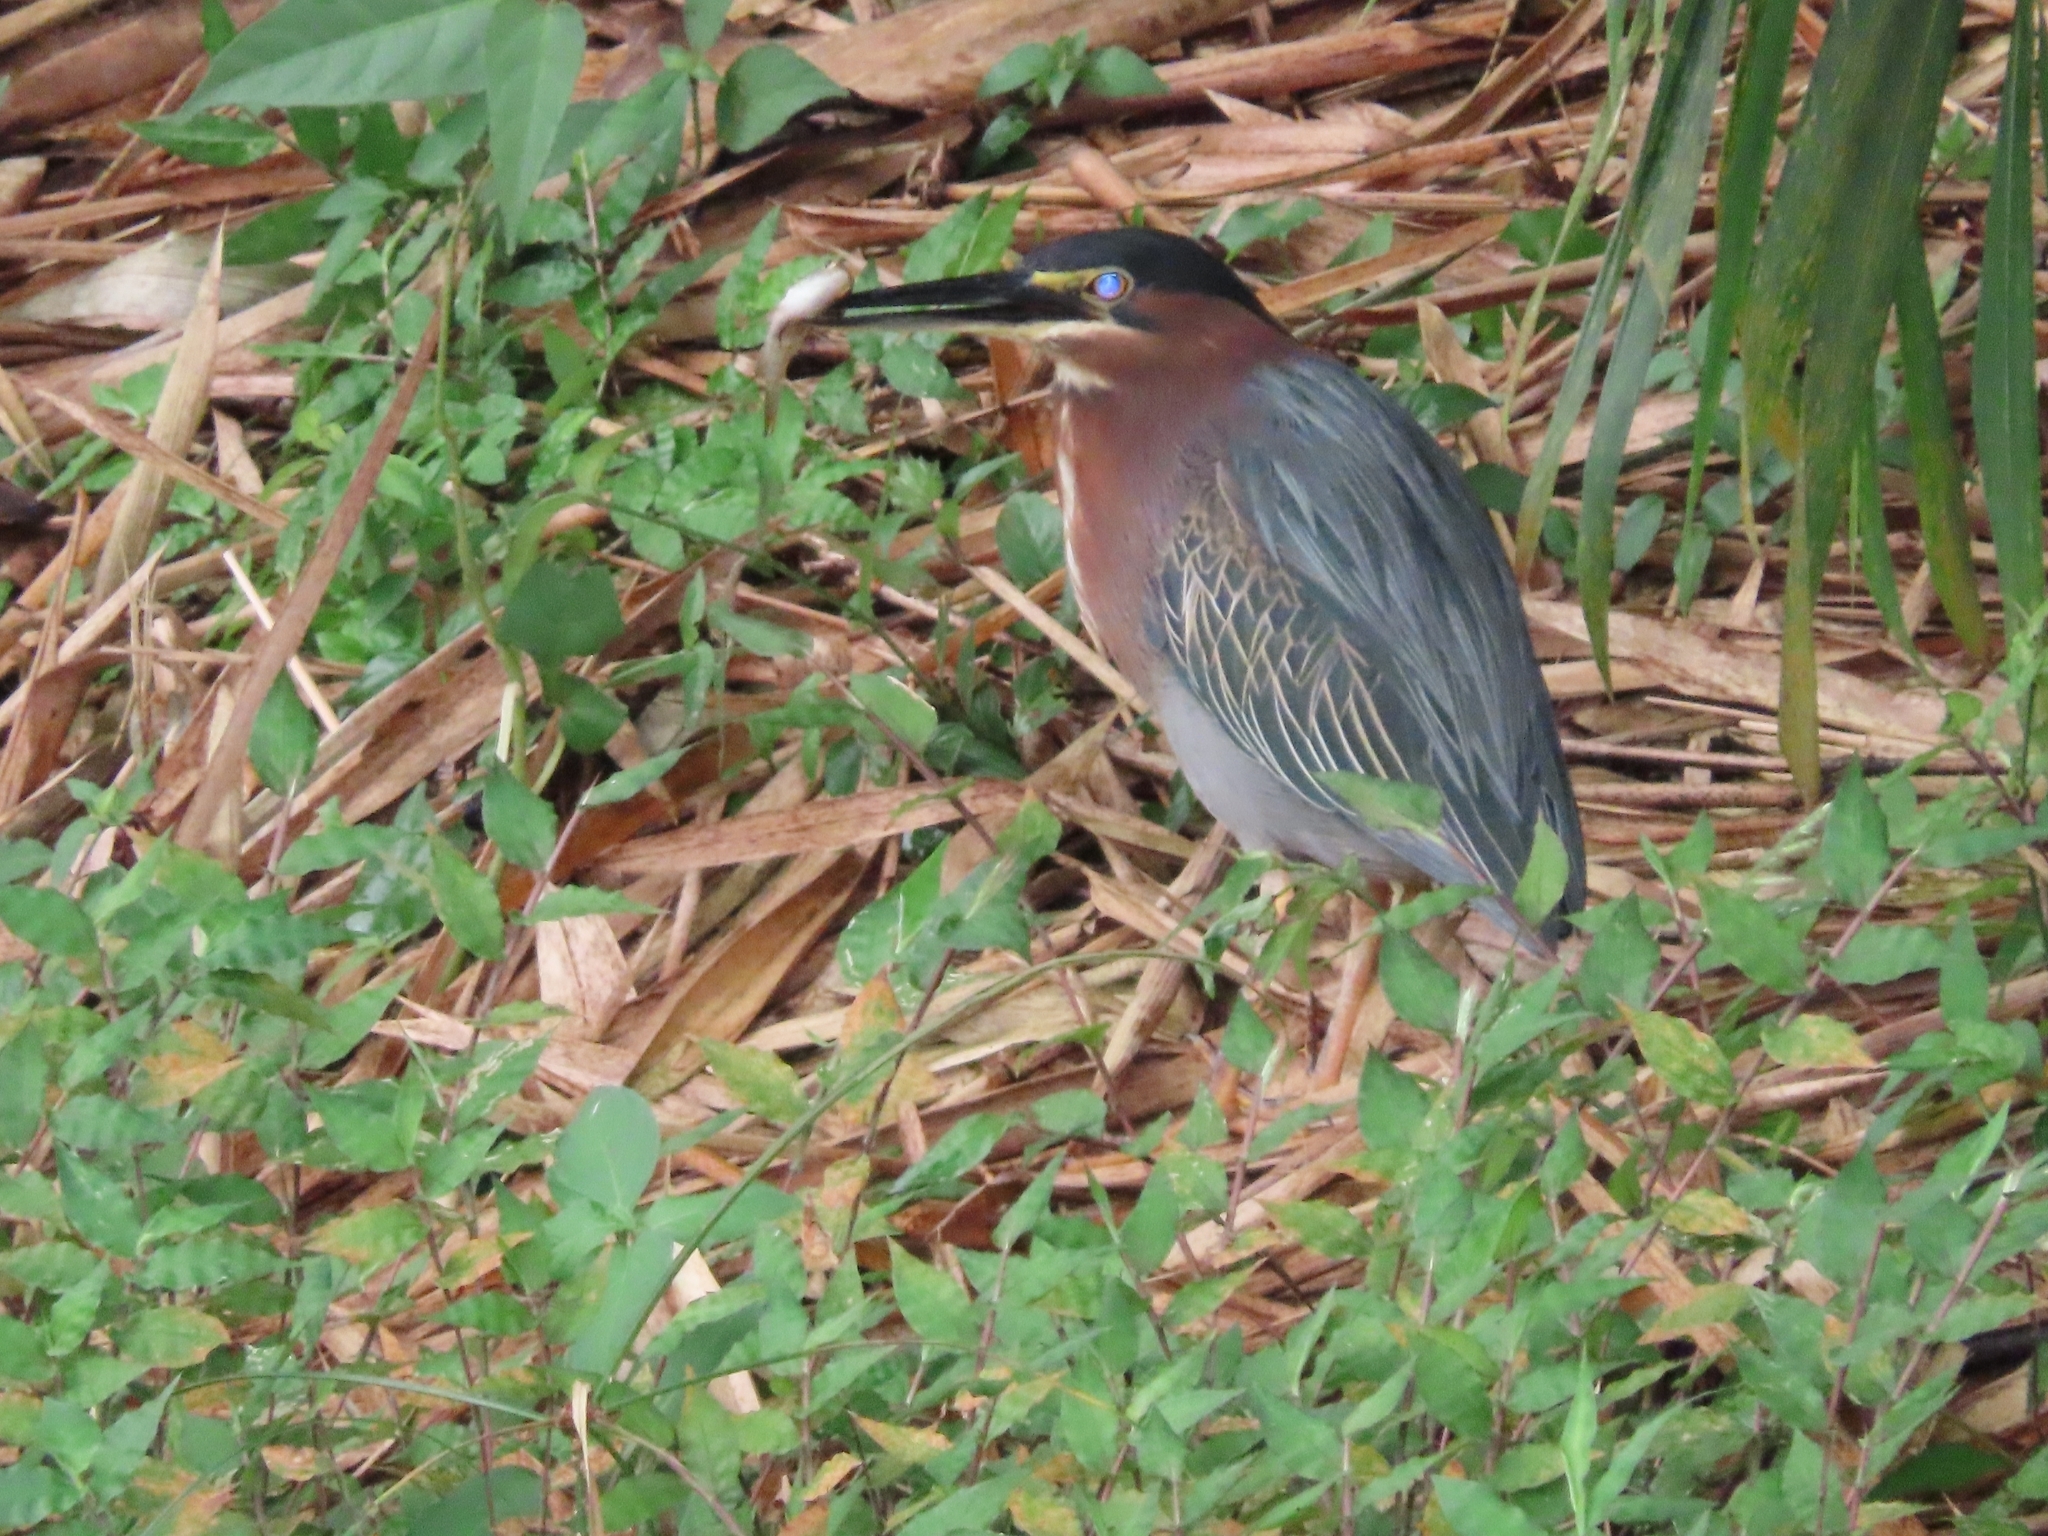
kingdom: Animalia
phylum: Chordata
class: Aves
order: Pelecaniformes
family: Ardeidae
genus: Butorides
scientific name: Butorides virescens
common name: Green heron
